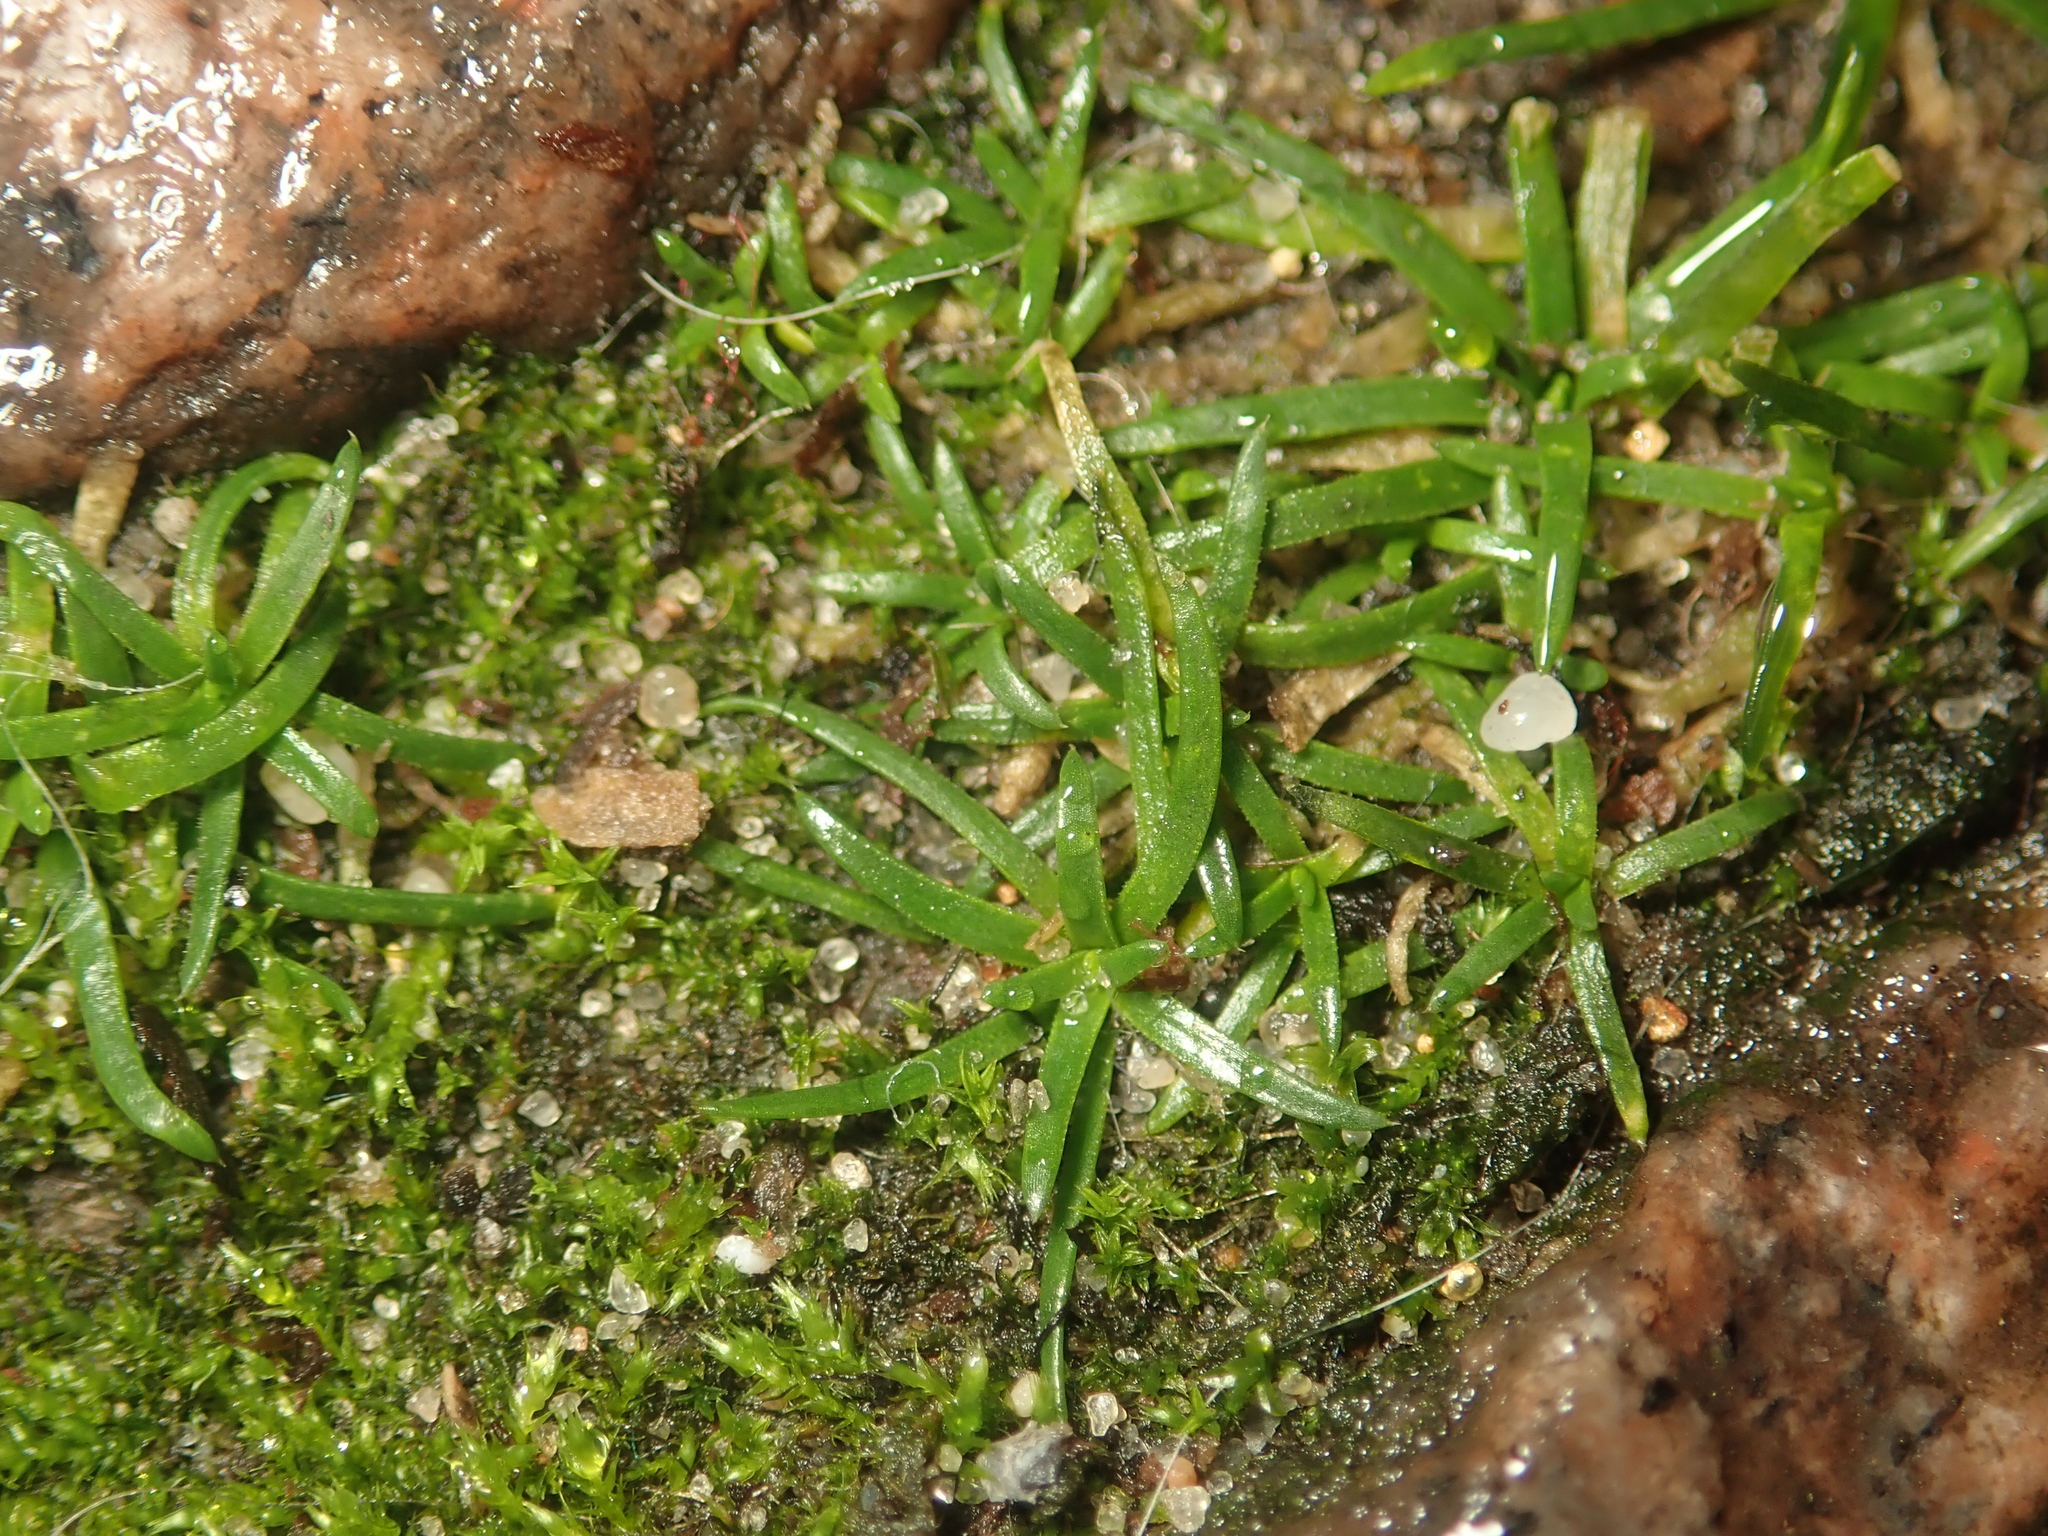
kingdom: Plantae
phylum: Tracheophyta
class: Magnoliopsida
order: Caryophyllales
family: Caryophyllaceae
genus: Sagina
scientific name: Sagina procumbens
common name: Procumbent pearlwort
